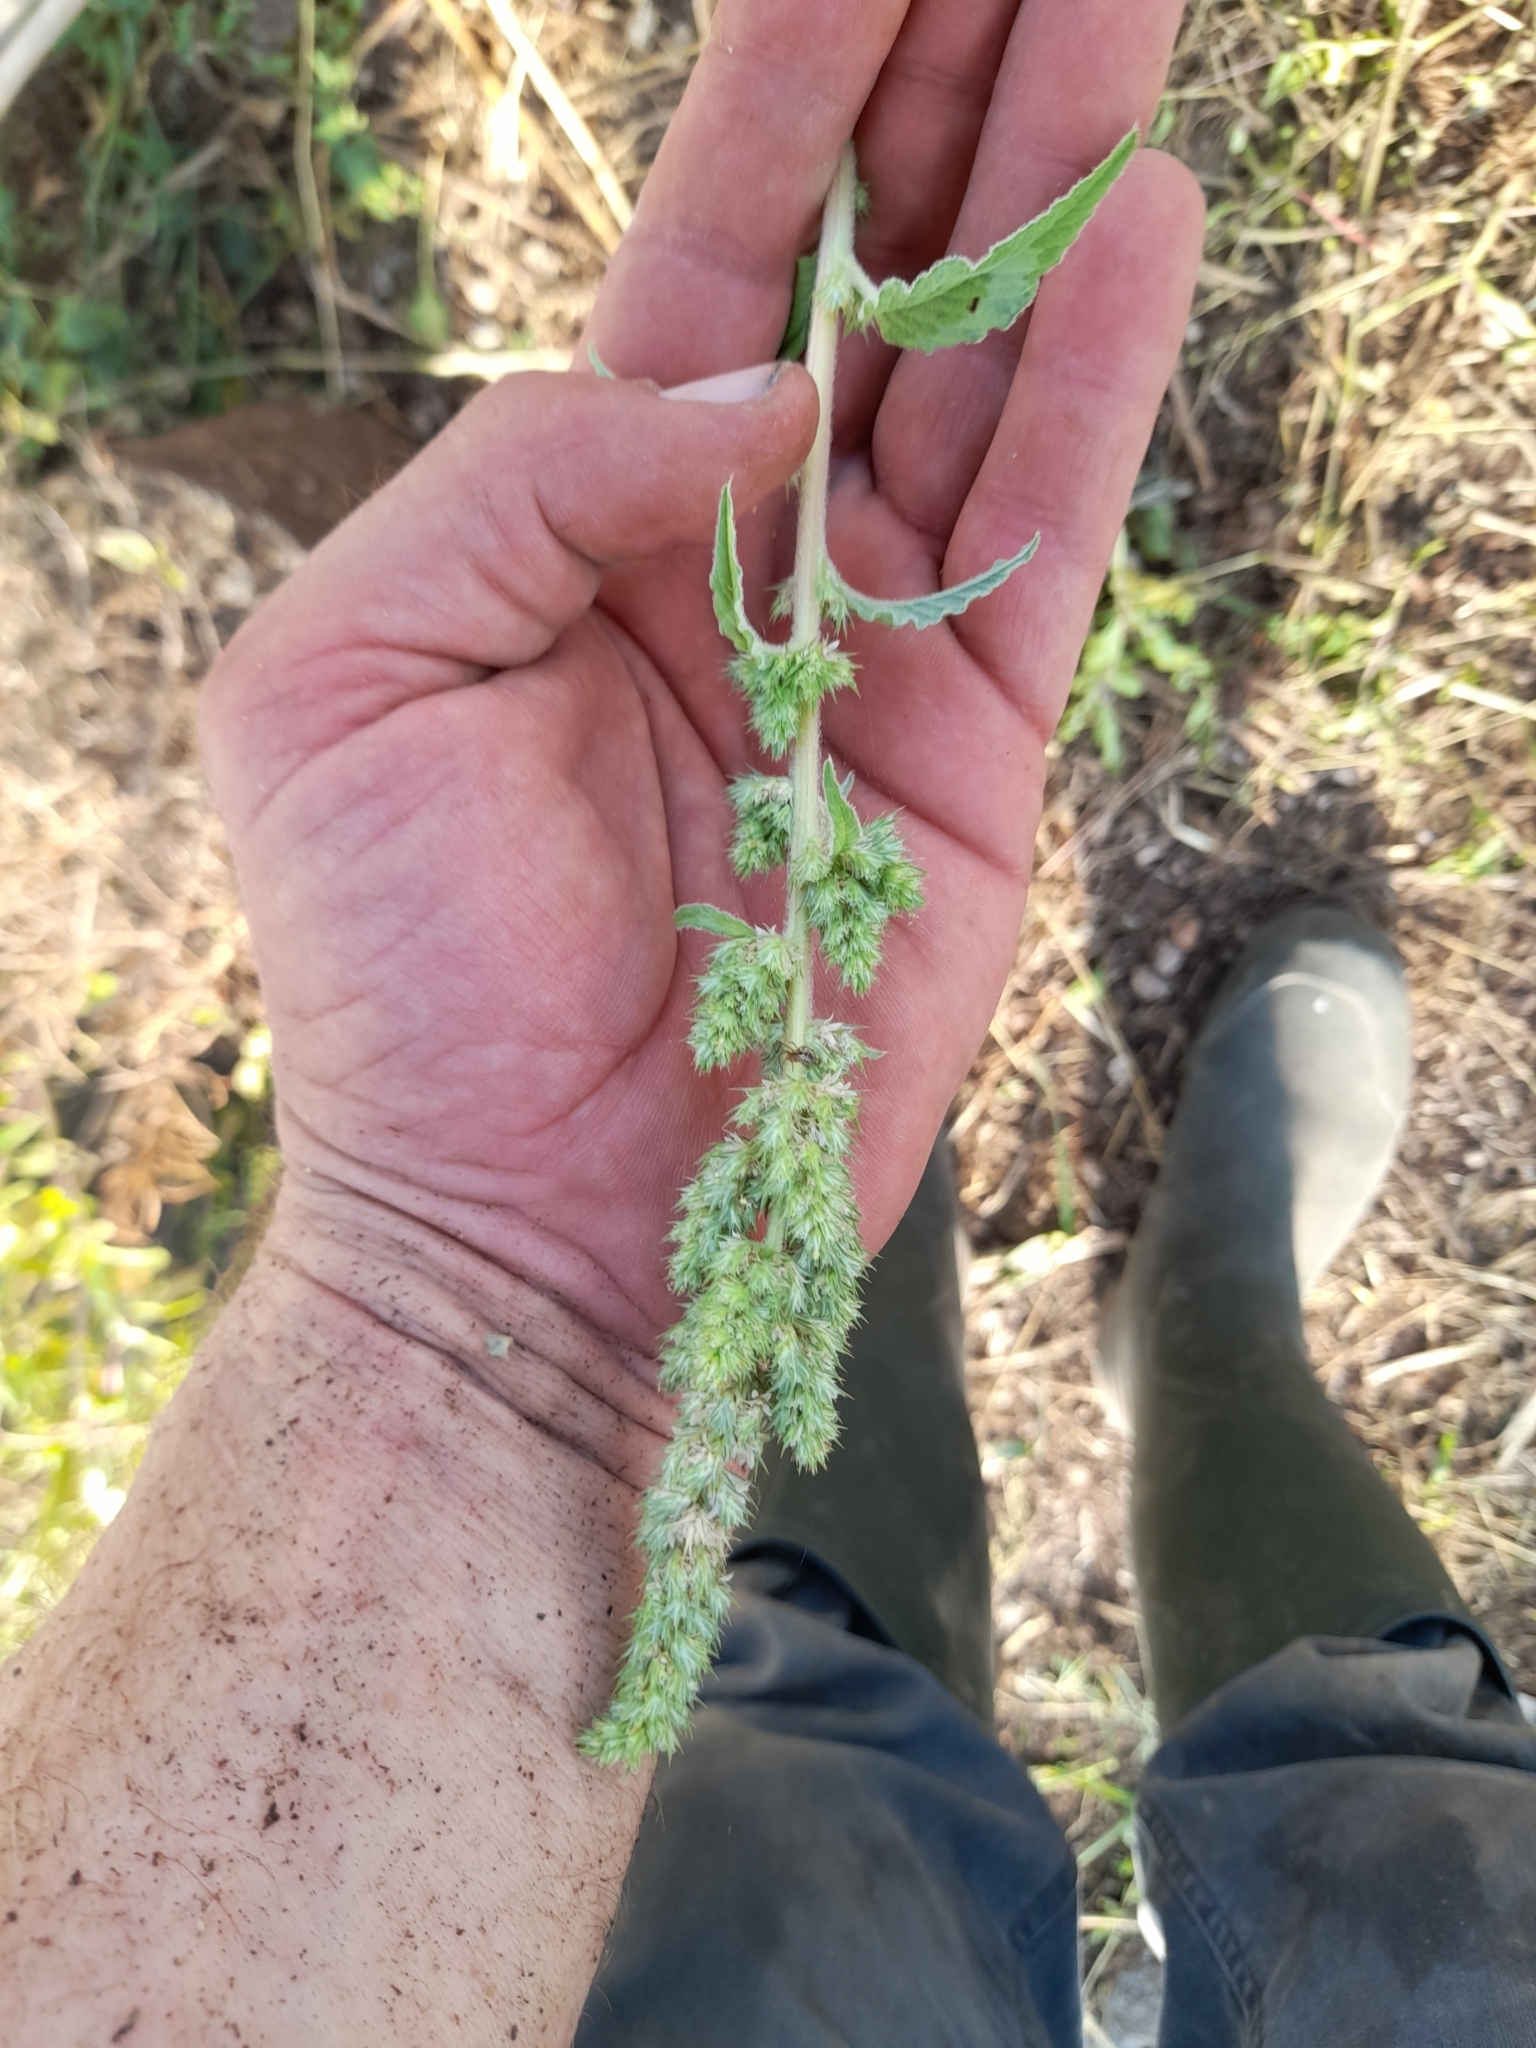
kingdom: Plantae
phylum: Tracheophyta
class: Magnoliopsida
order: Caryophyllales
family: Amaranthaceae
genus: Amaranthus
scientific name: Amaranthus retroflexus
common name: Redroot amaranth
